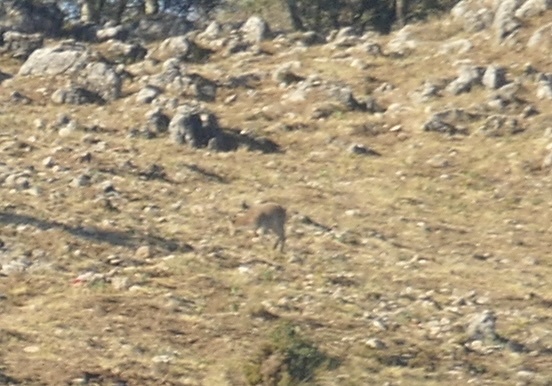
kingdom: Animalia
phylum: Chordata
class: Mammalia
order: Artiodactyla
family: Bovidae
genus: Capra
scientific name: Capra pyrenaica
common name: Spanish ibex
